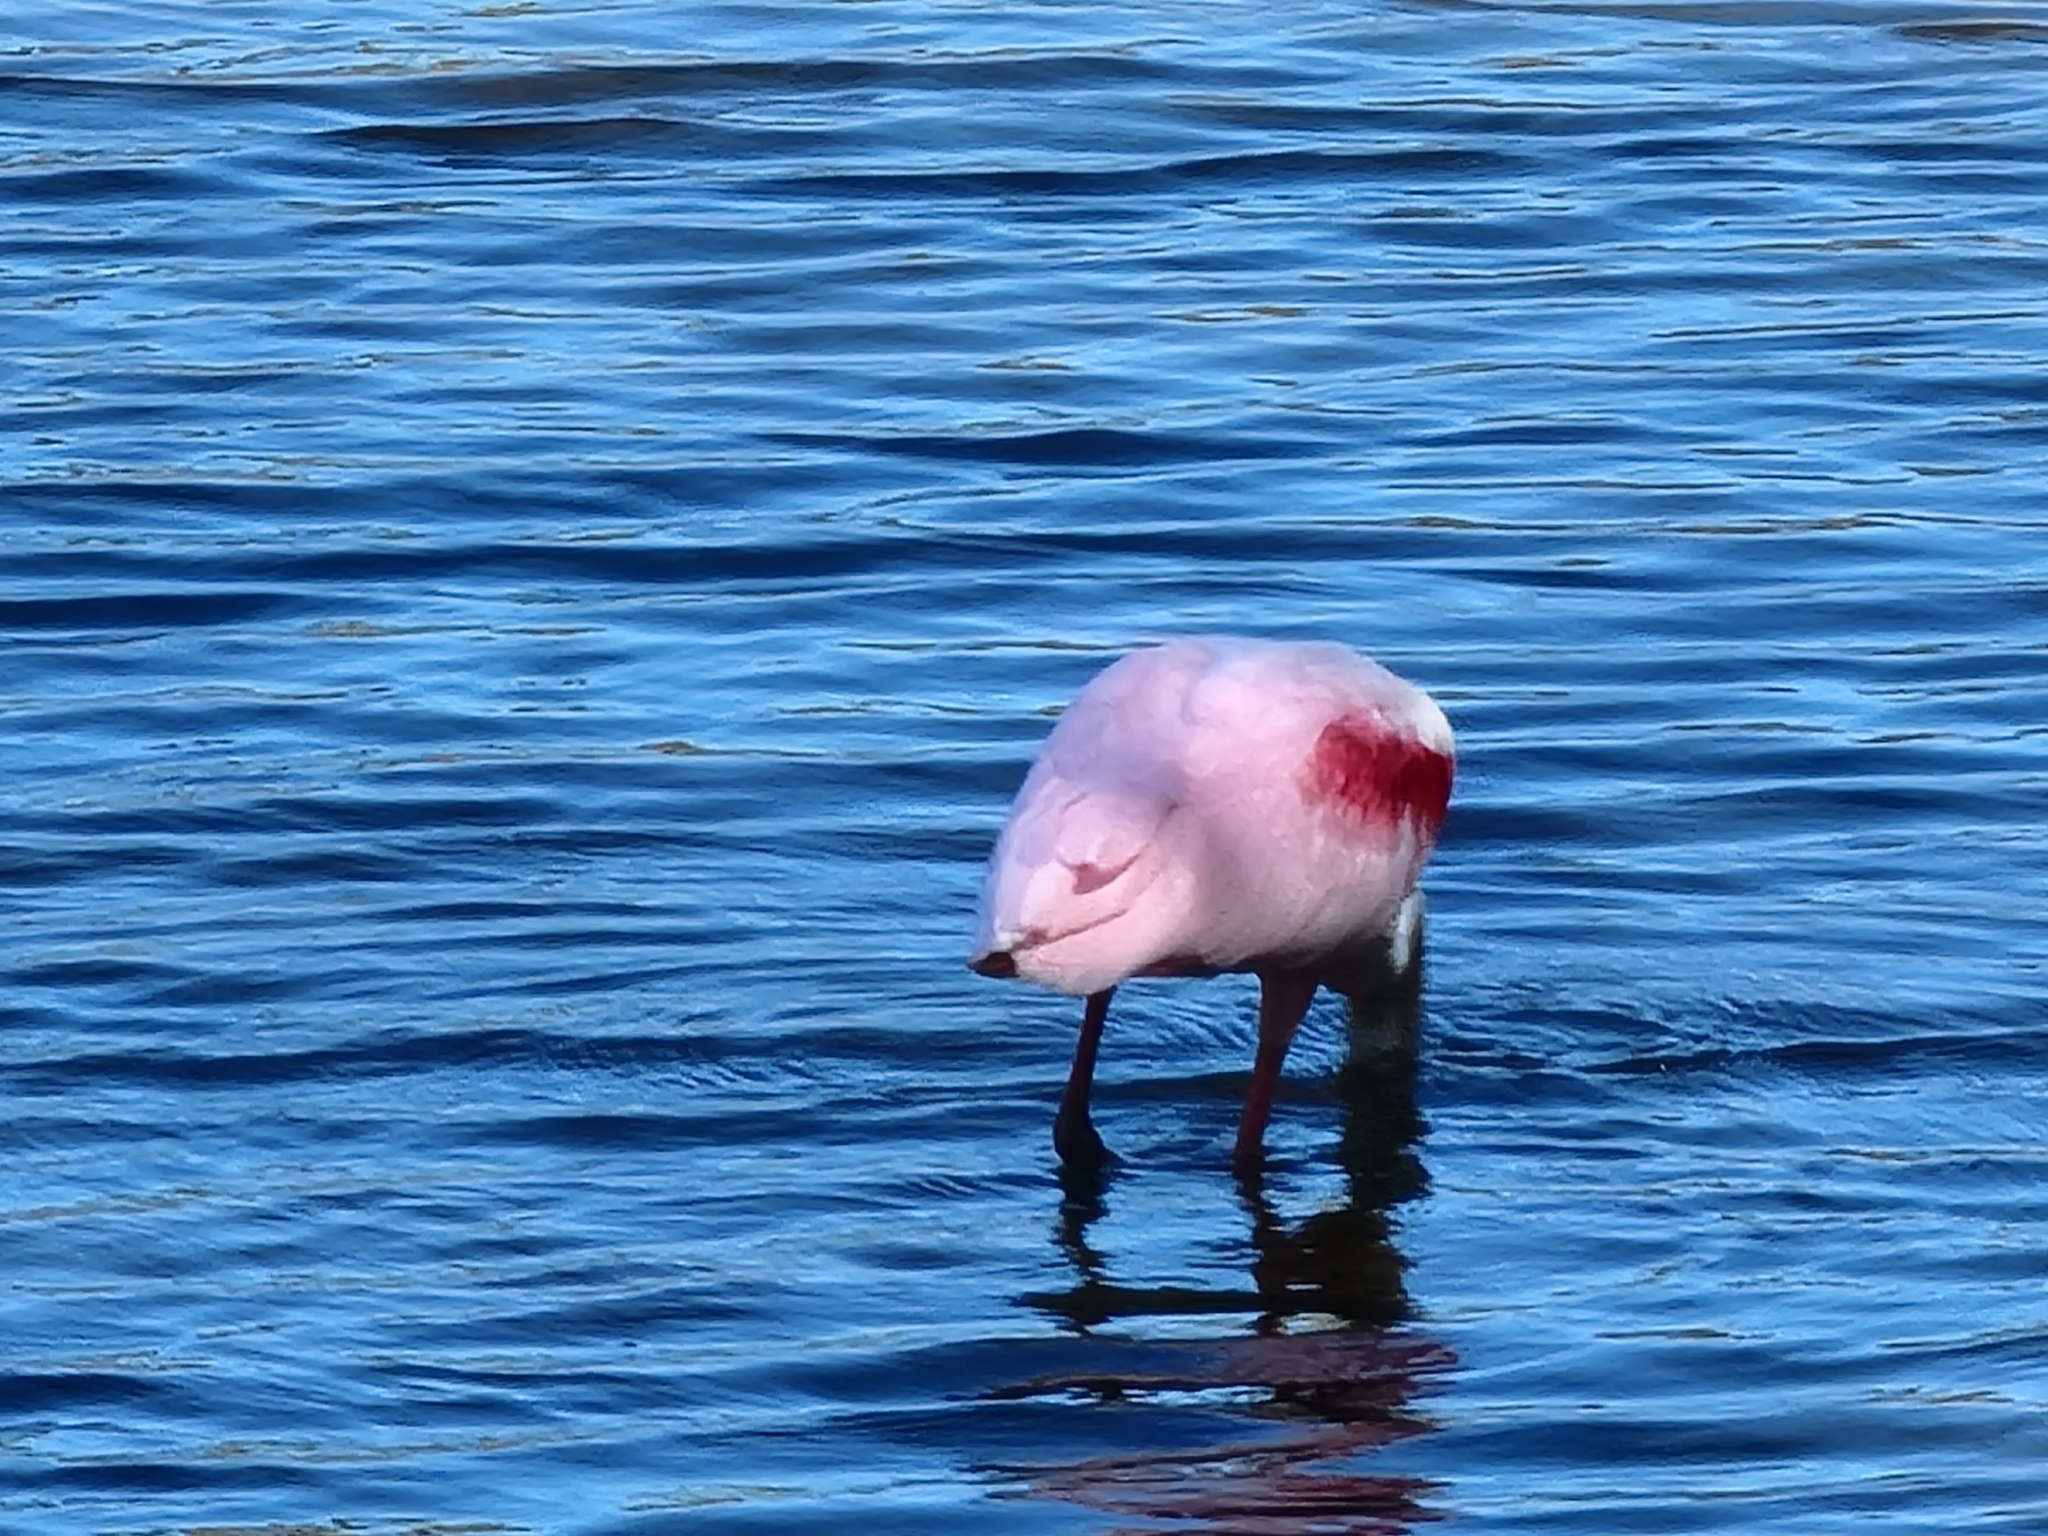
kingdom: Animalia
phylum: Chordata
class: Aves
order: Pelecaniformes
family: Threskiornithidae
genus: Platalea
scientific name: Platalea ajaja
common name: Roseate spoonbill
